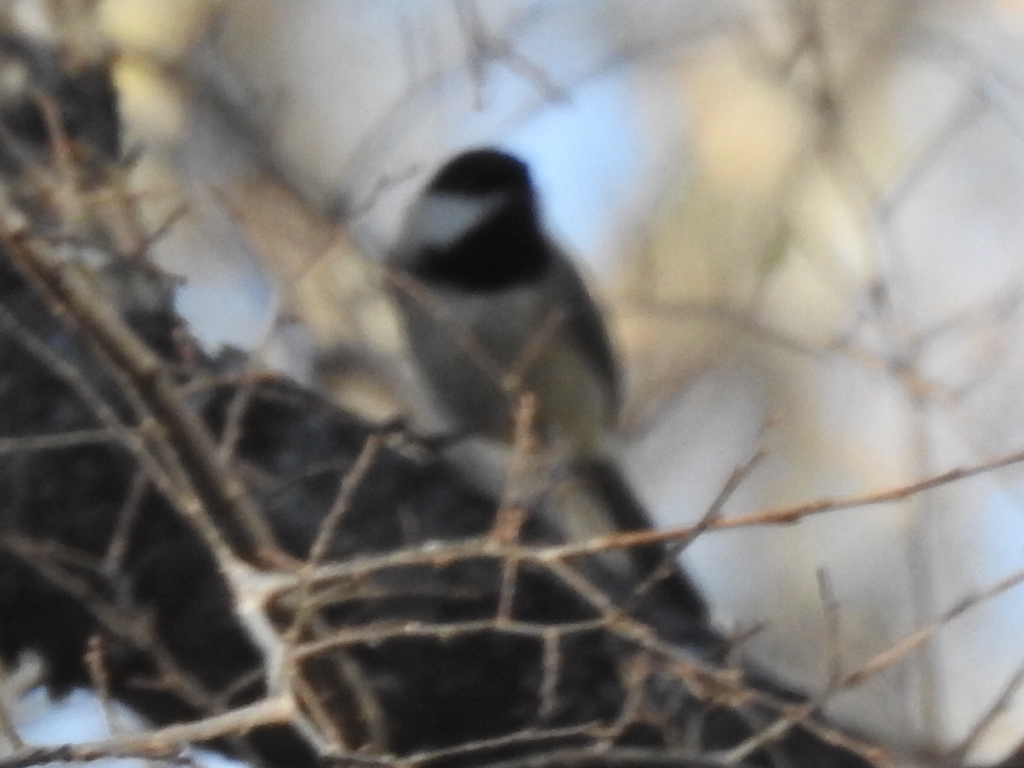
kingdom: Animalia
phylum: Chordata
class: Aves
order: Passeriformes
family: Paridae
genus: Poecile
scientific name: Poecile carolinensis
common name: Carolina chickadee
